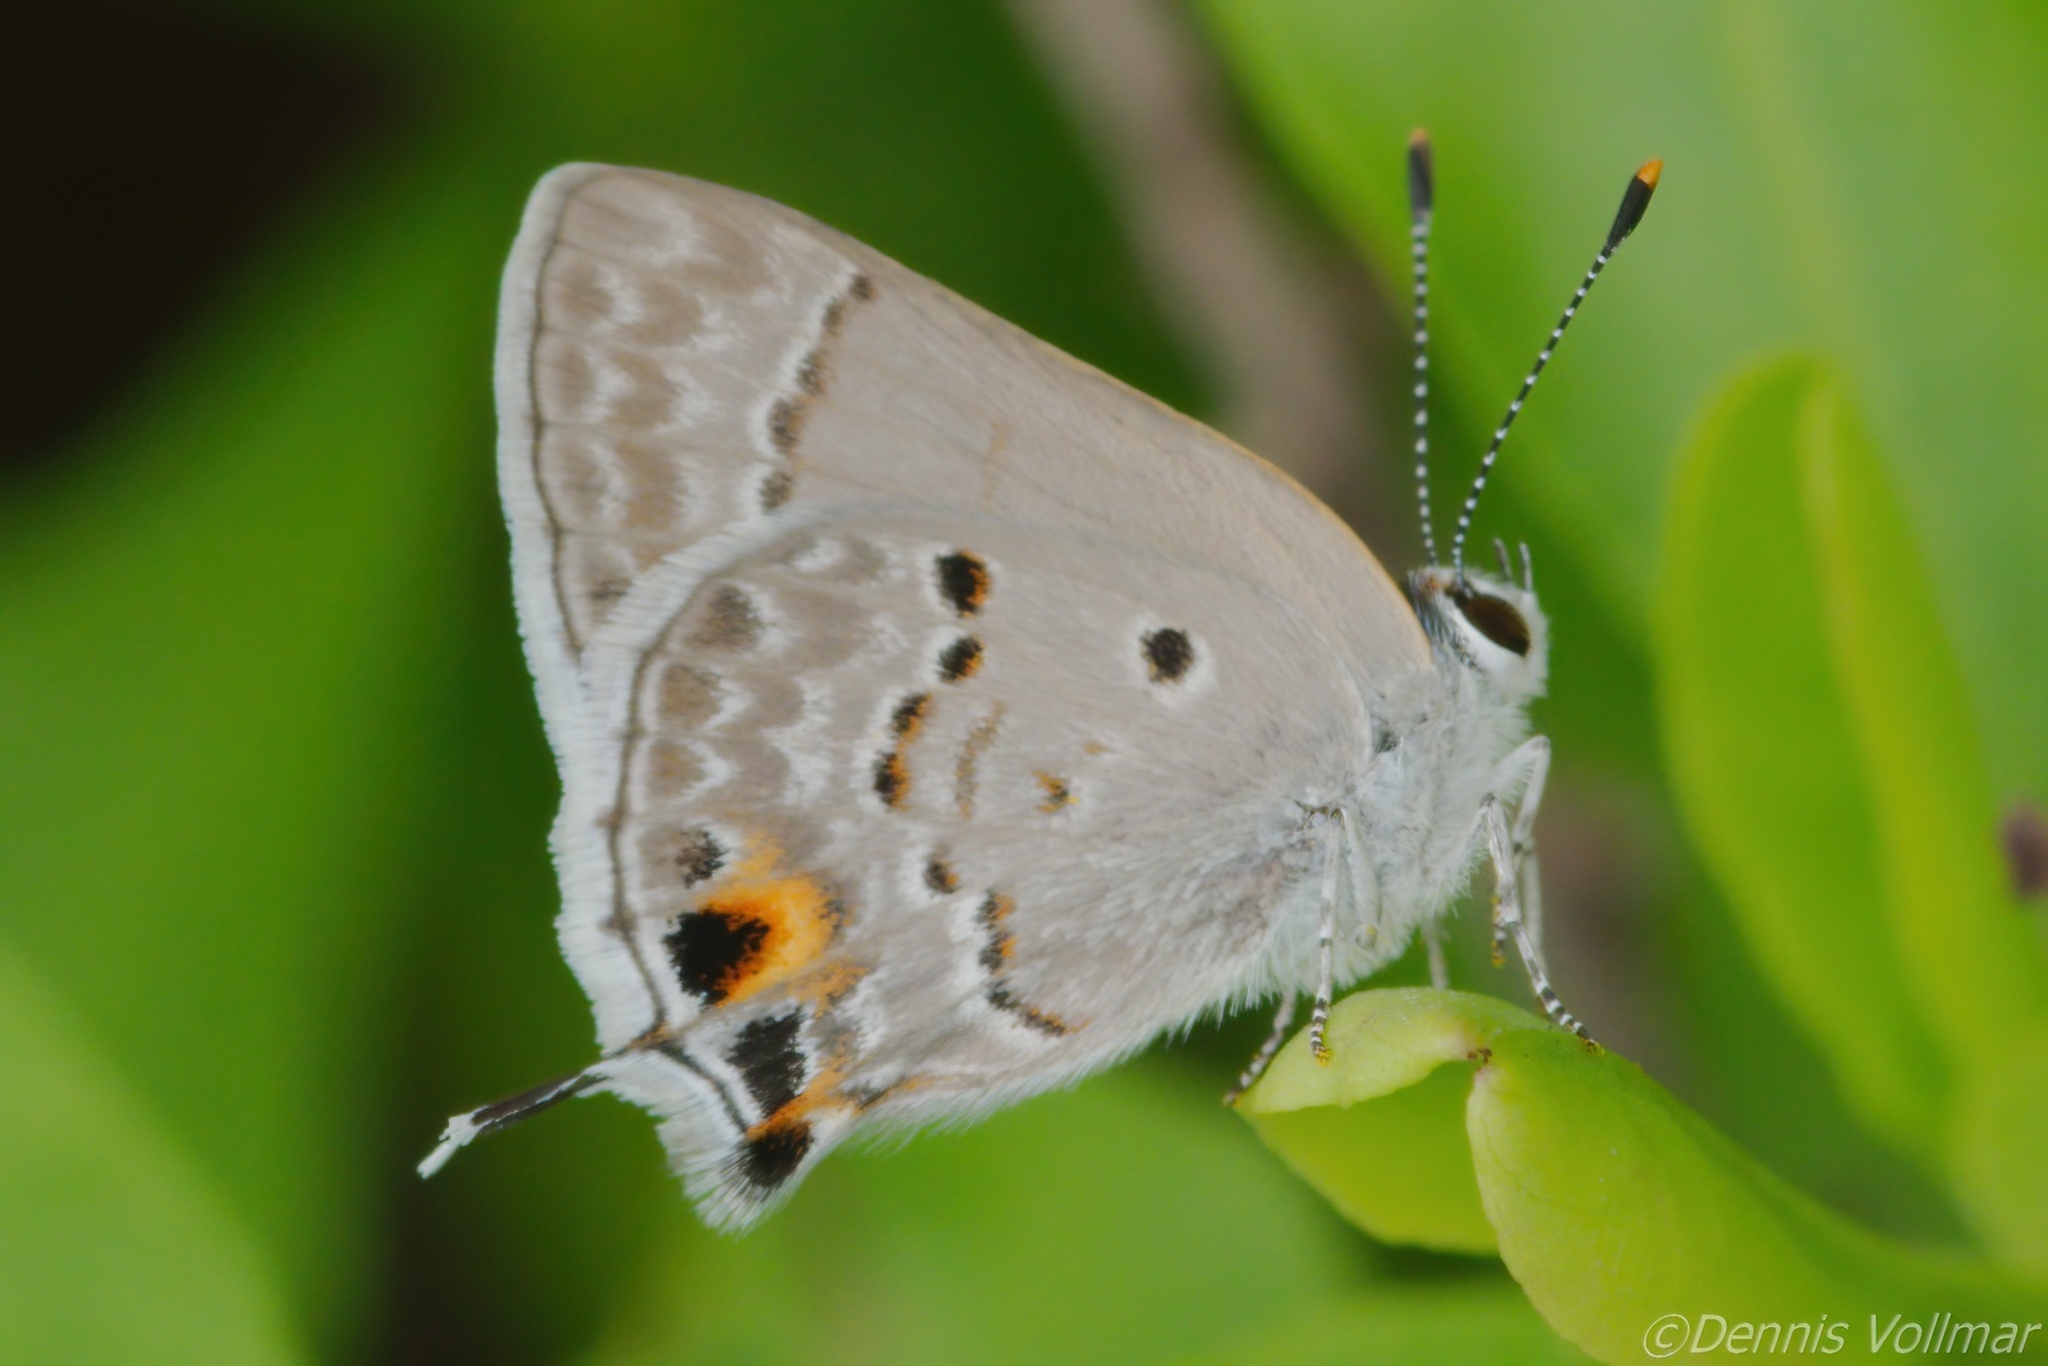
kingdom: Animalia
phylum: Arthropoda
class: Insecta
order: Lepidoptera
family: Lycaenidae
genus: Callicista
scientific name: Callicista columella
